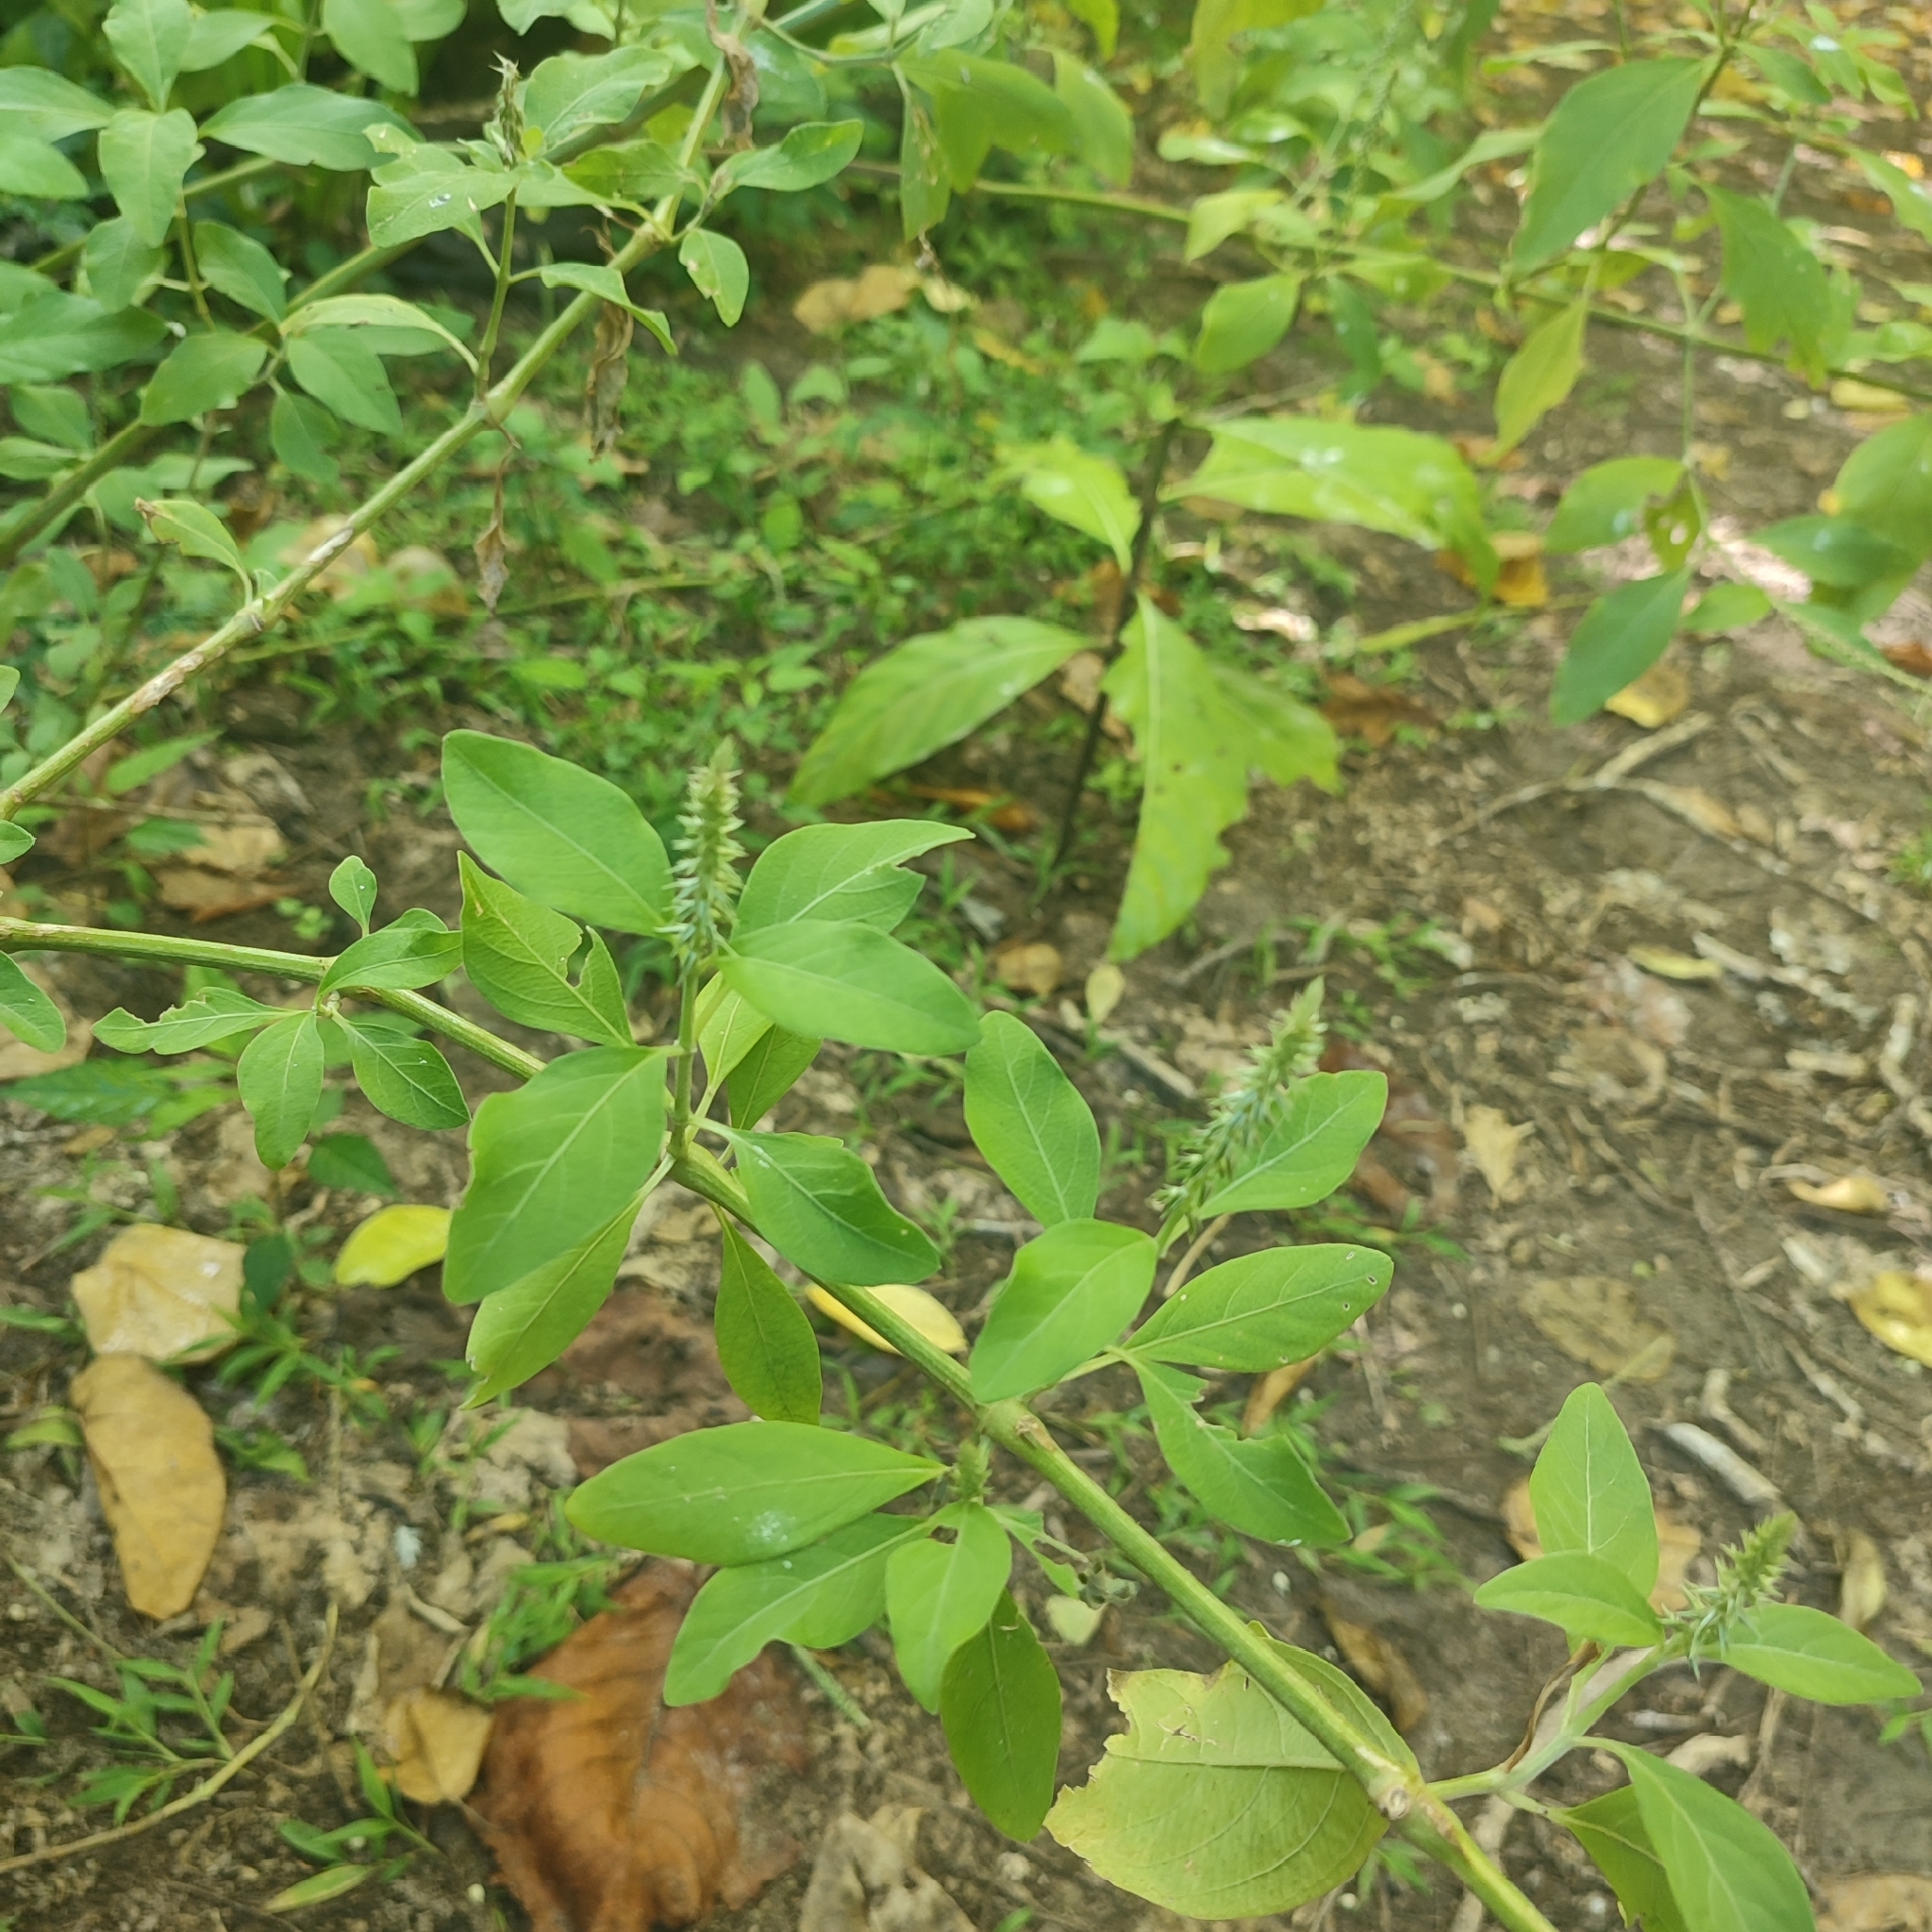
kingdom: Plantae
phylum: Tracheophyta
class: Magnoliopsida
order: Caryophyllales
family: Amaranthaceae
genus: Achyranthes
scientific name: Achyranthes aspera
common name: Devil's horsewhip
